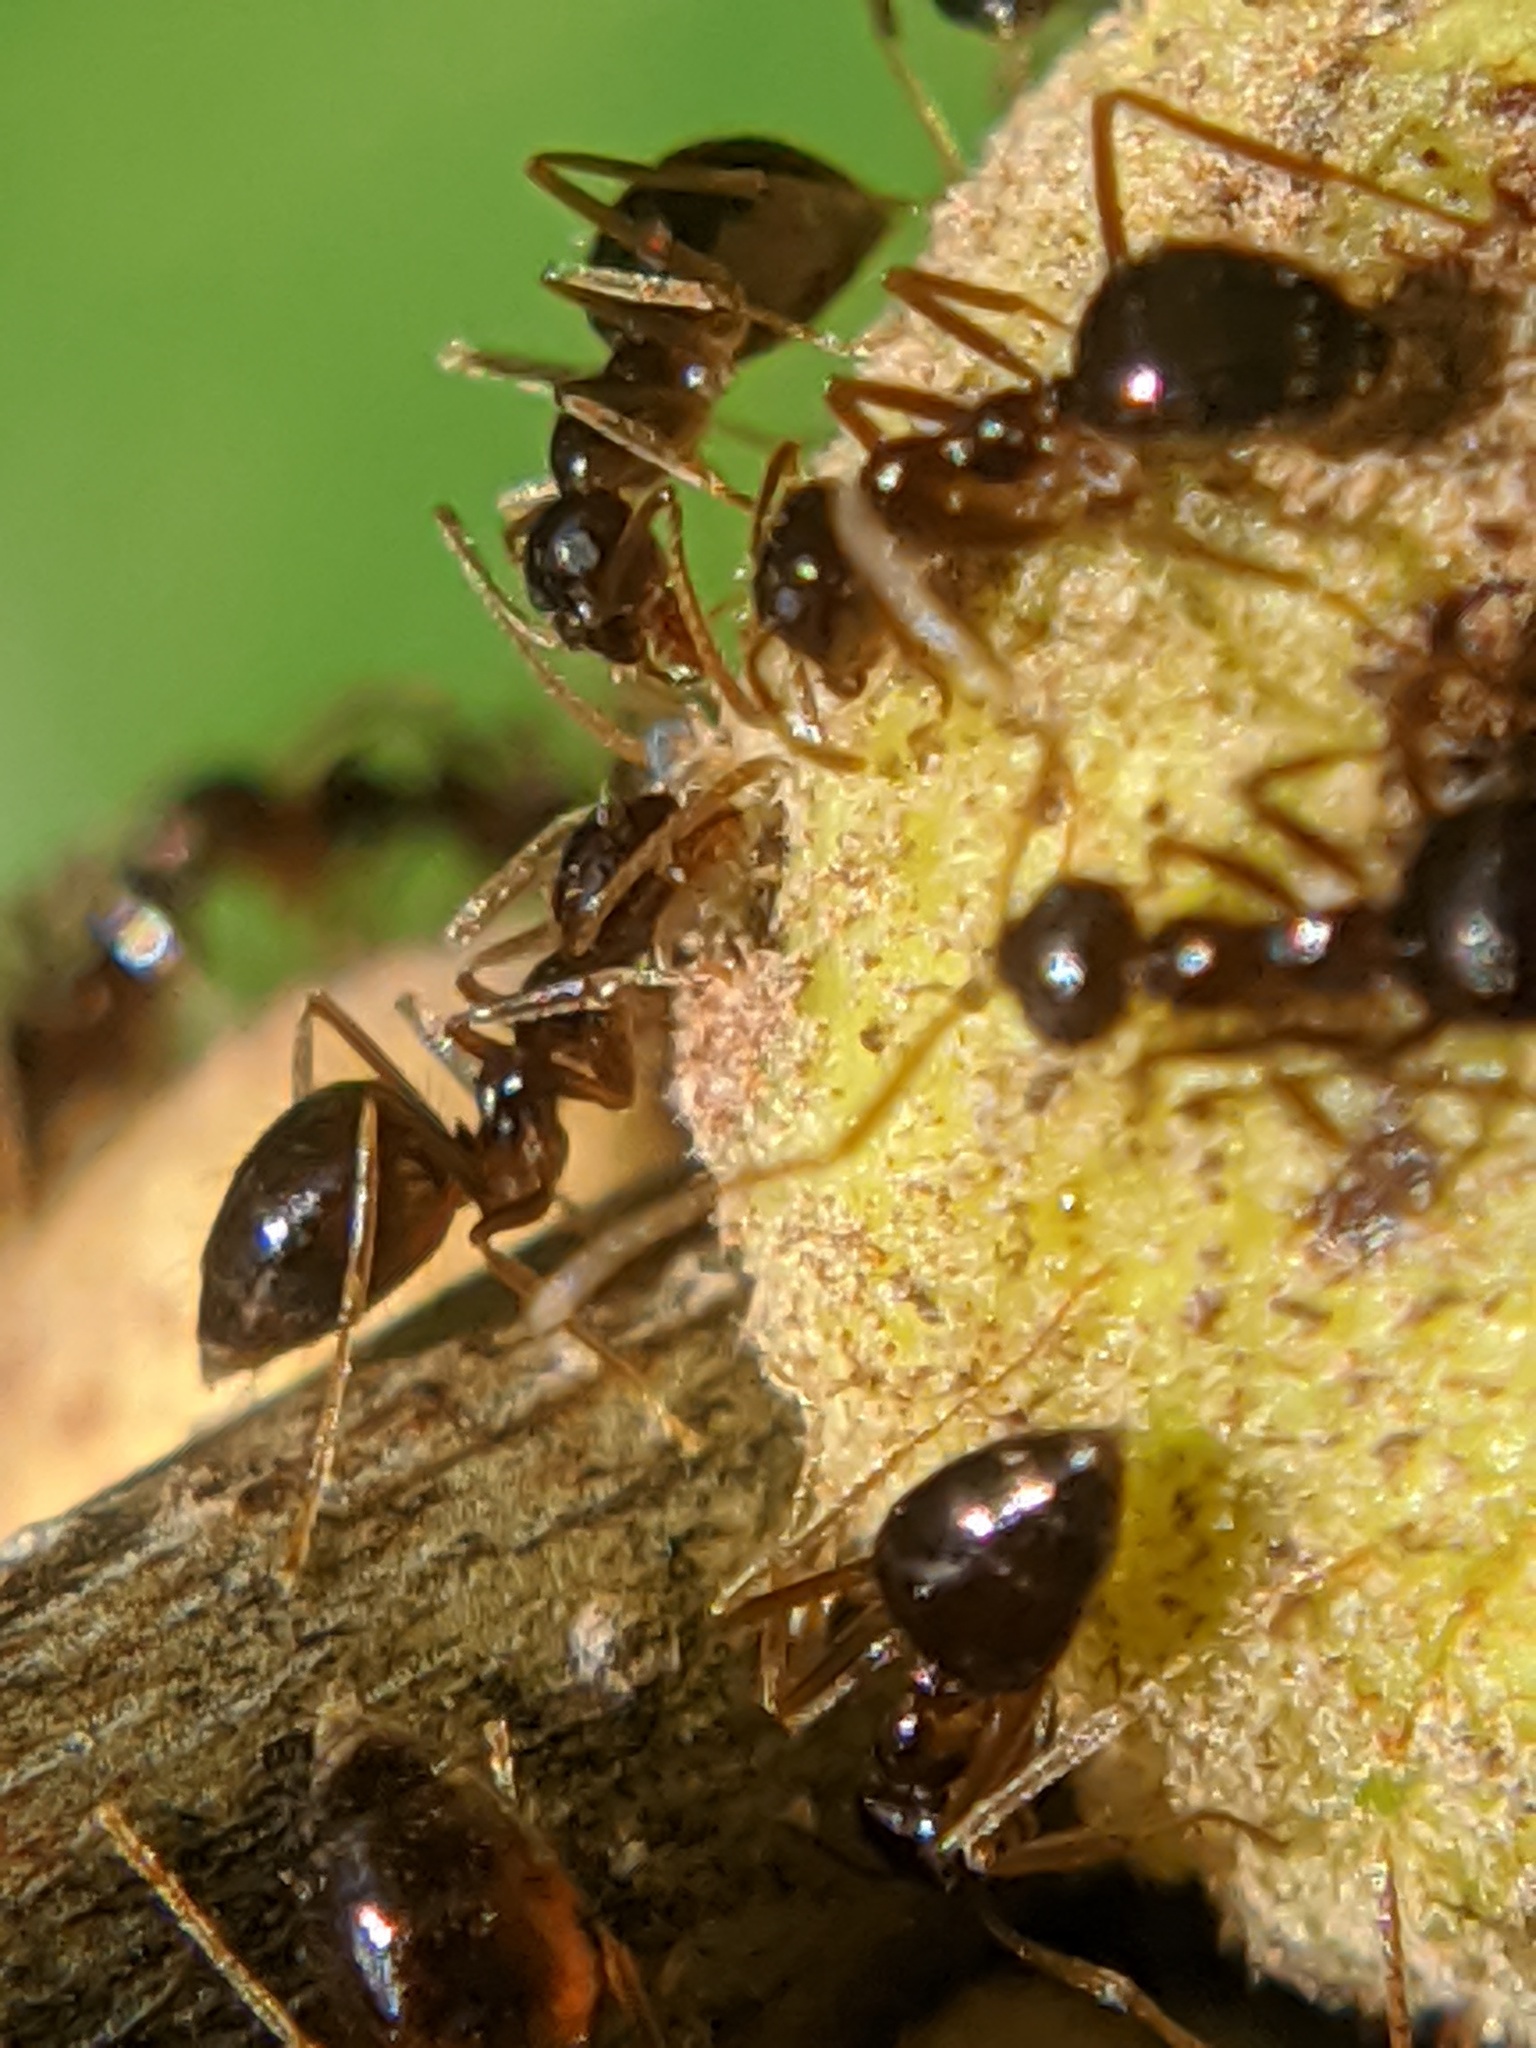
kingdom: Animalia
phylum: Arthropoda
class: Insecta
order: Hymenoptera
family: Formicidae
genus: Prenolepis
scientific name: Prenolepis imparis
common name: Small honey ant
